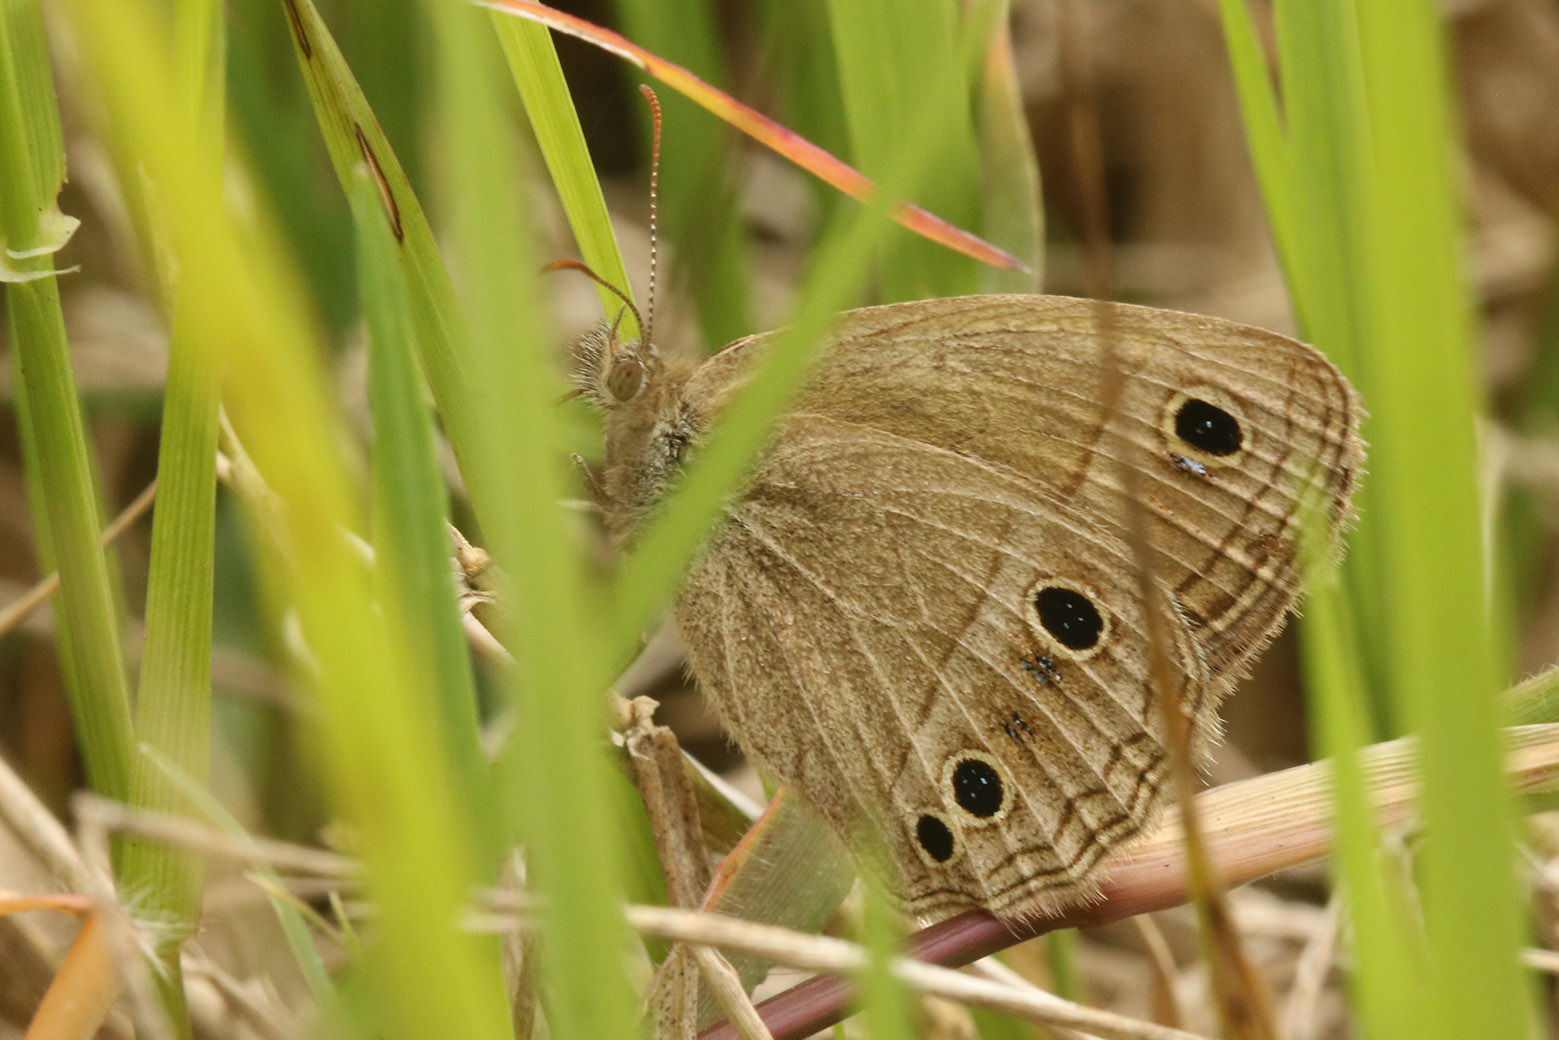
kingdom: Animalia
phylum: Arthropoda
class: Insecta
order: Lepidoptera
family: Nymphalidae
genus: Stegosatyrus
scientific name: Stegosatyrus periphas
